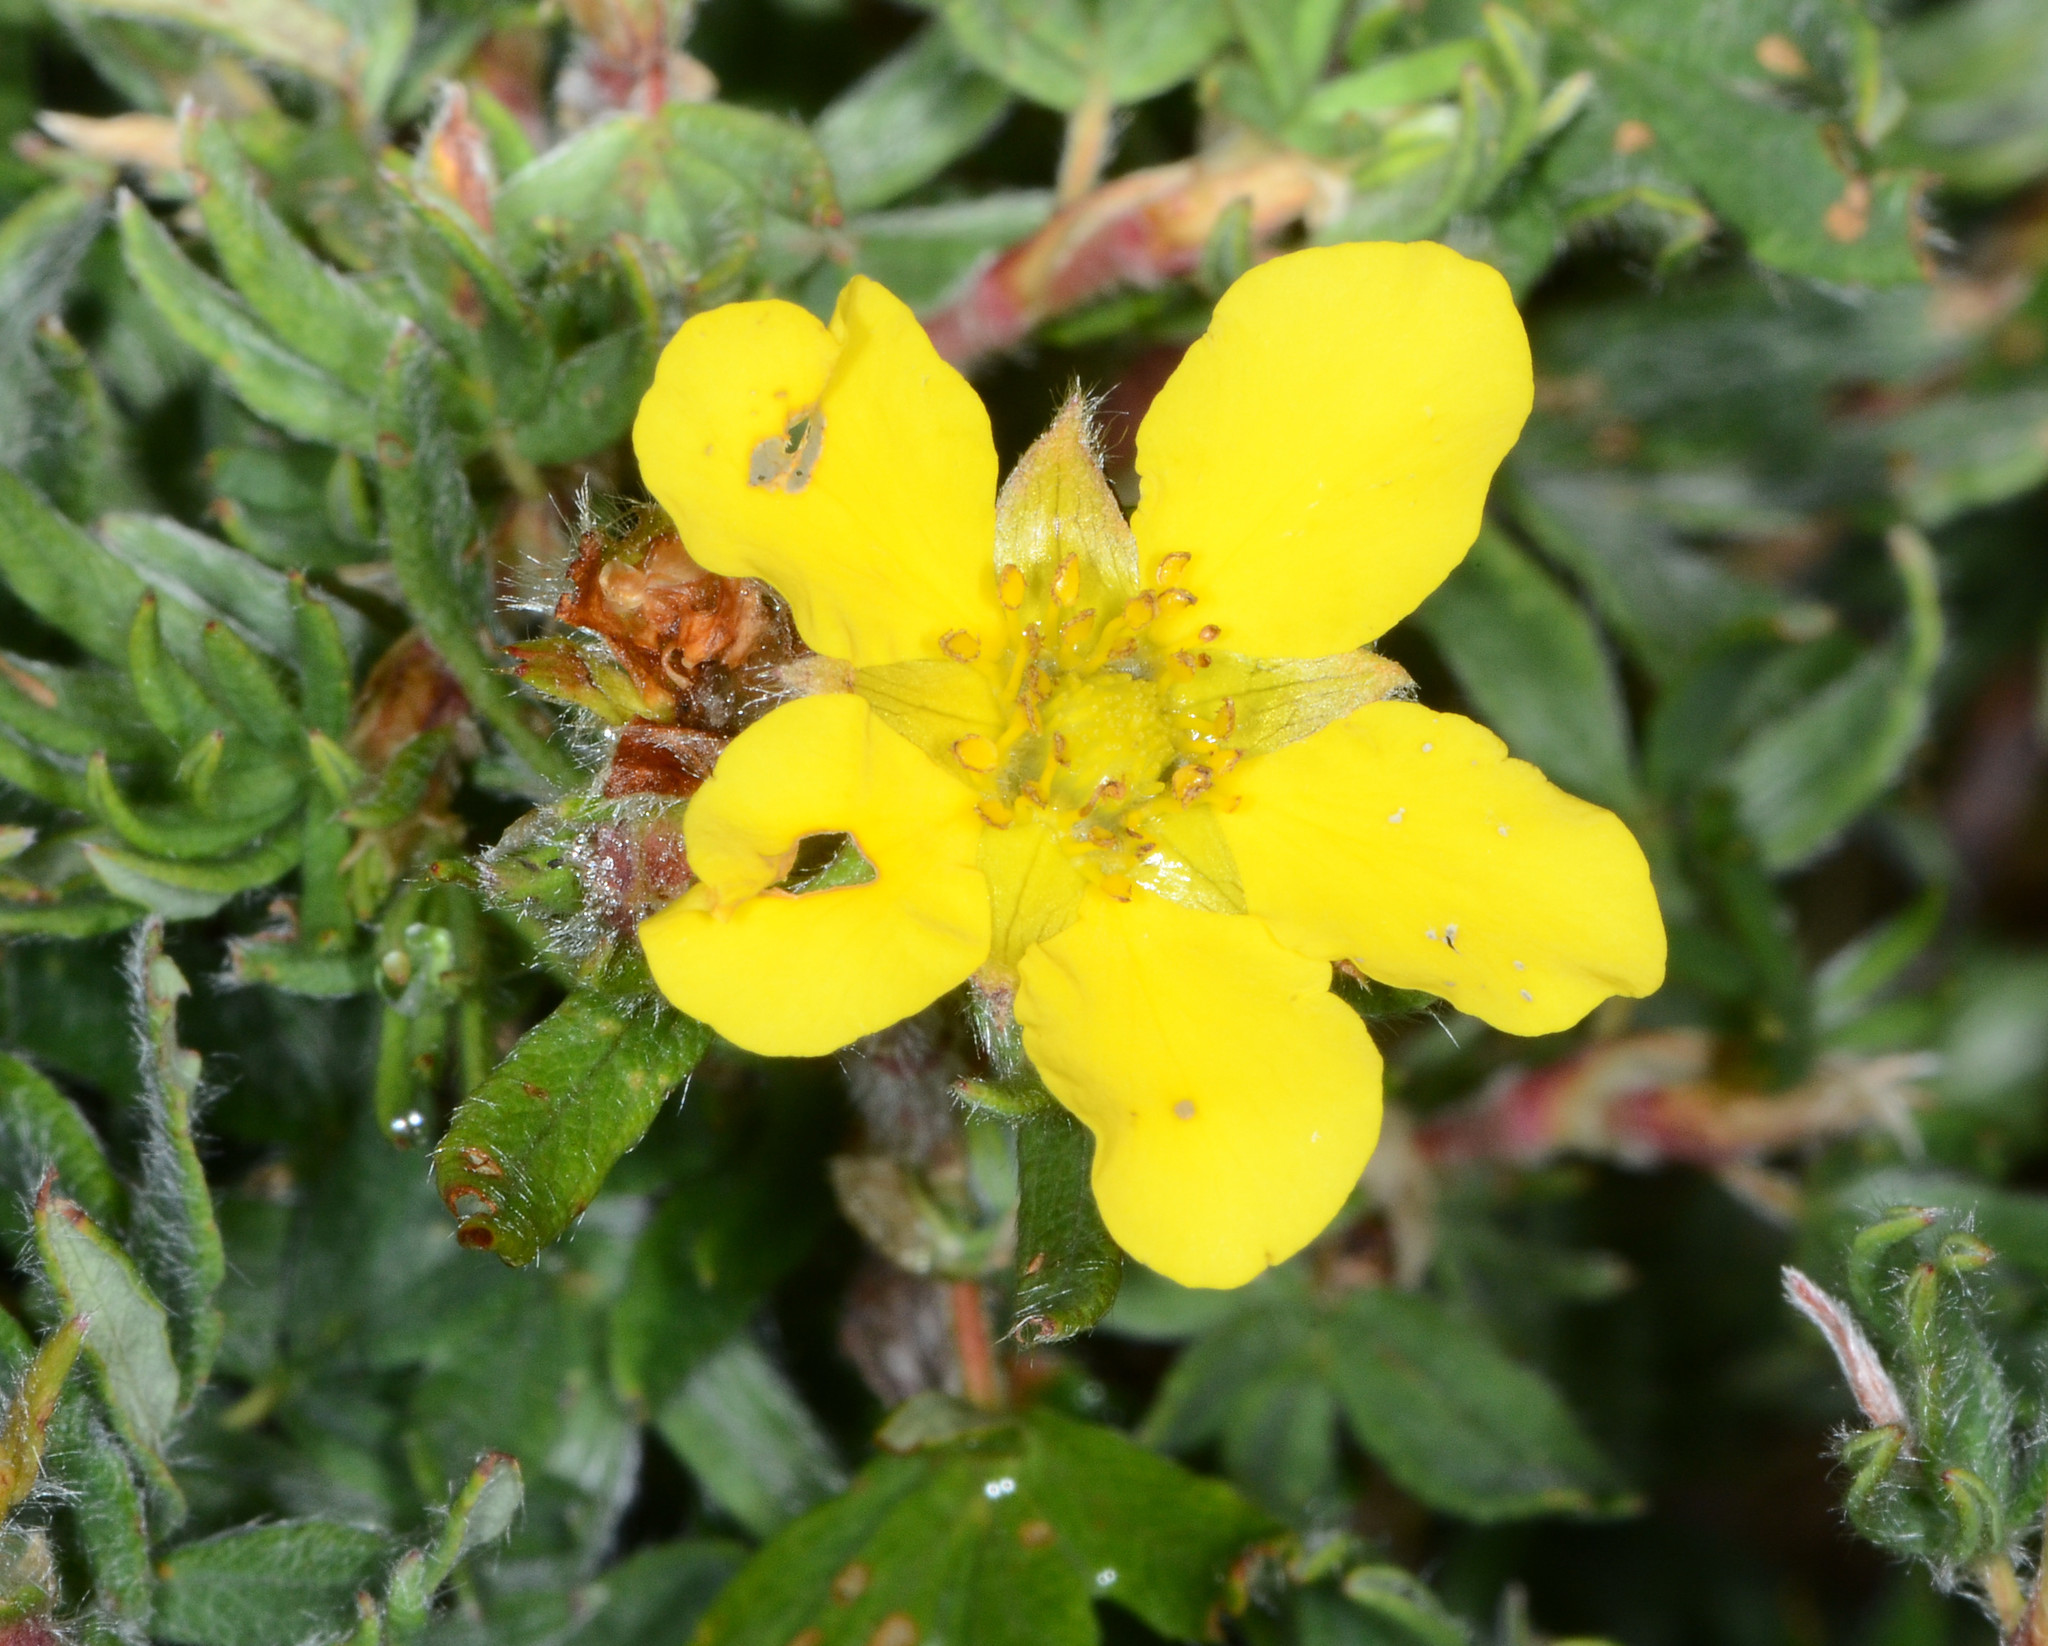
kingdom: Plantae
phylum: Tracheophyta
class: Magnoliopsida
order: Rosales
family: Rosaceae
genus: Dasiphora
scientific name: Dasiphora fruticosa
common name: Shrubby cinquefoil
